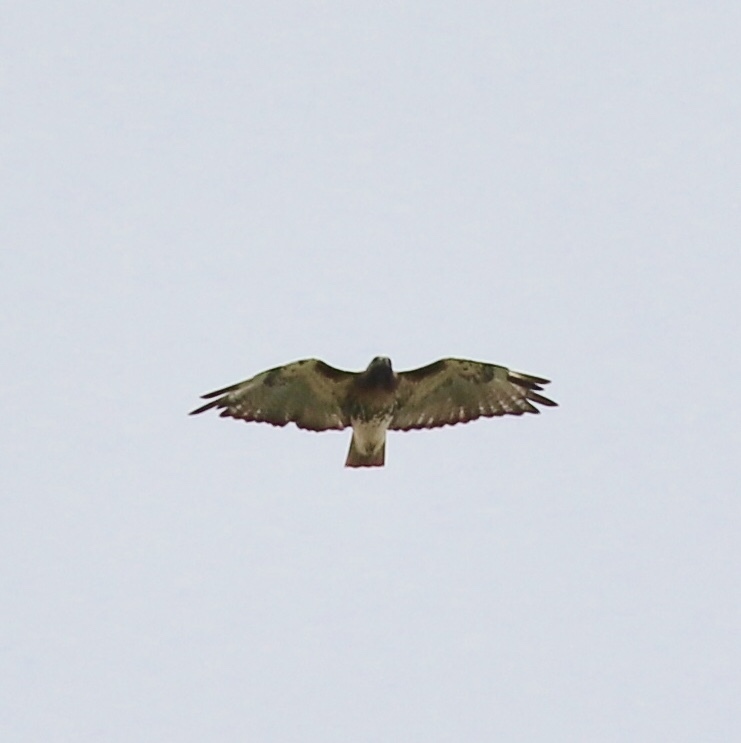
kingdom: Animalia
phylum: Chordata
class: Aves
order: Accipitriformes
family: Accipitridae
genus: Buteo
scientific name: Buteo jamaicensis
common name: Red-tailed hawk
